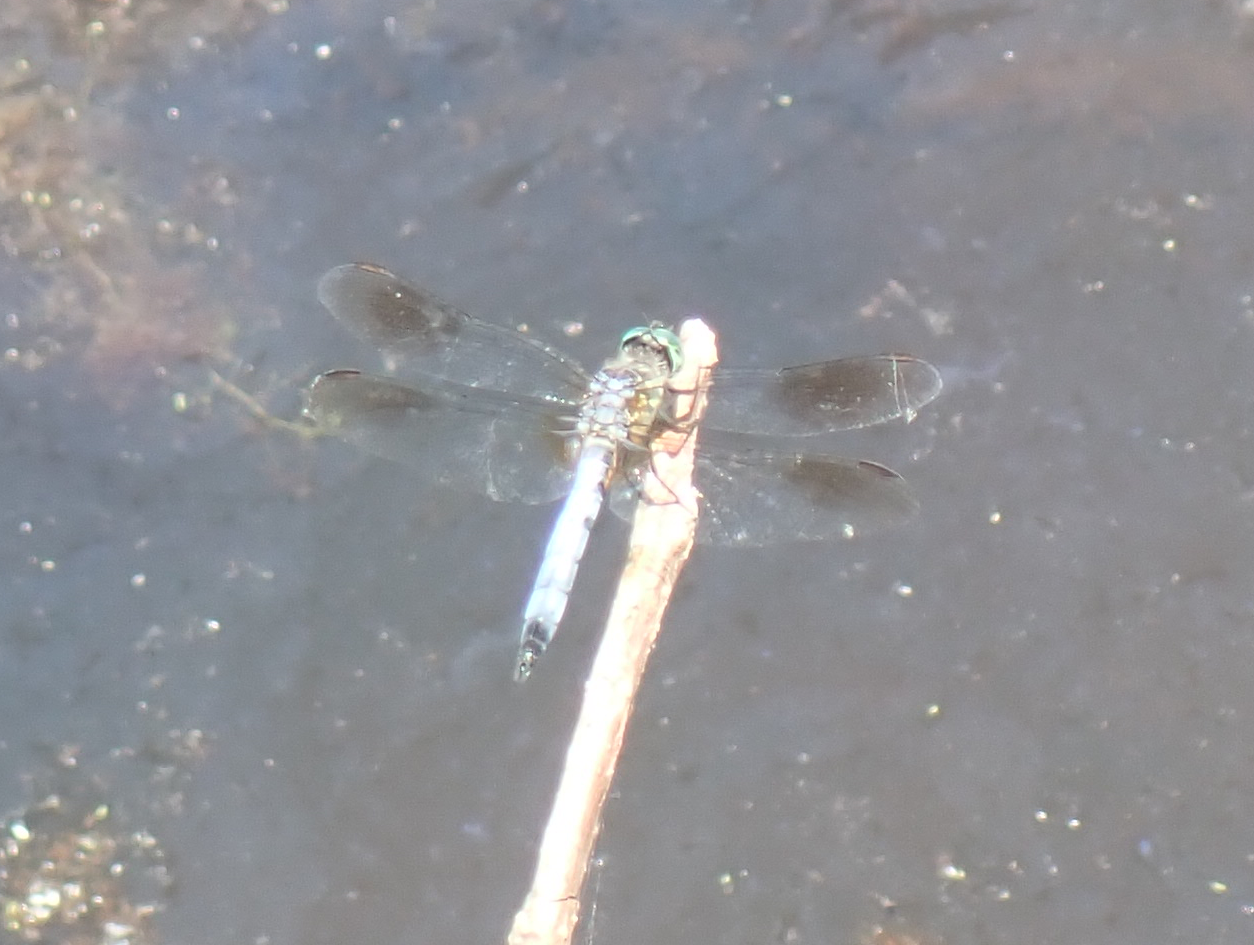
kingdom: Animalia
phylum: Arthropoda
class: Insecta
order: Odonata
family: Libellulidae
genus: Pachydiplax
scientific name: Pachydiplax longipennis
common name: Blue dasher
